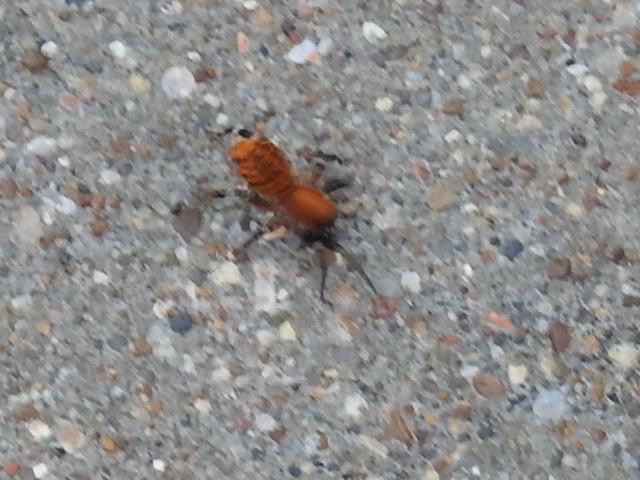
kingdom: Animalia
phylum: Arthropoda
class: Arachnida
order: Araneae
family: Corinnidae
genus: Castianeira
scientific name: Castianeira amoena
